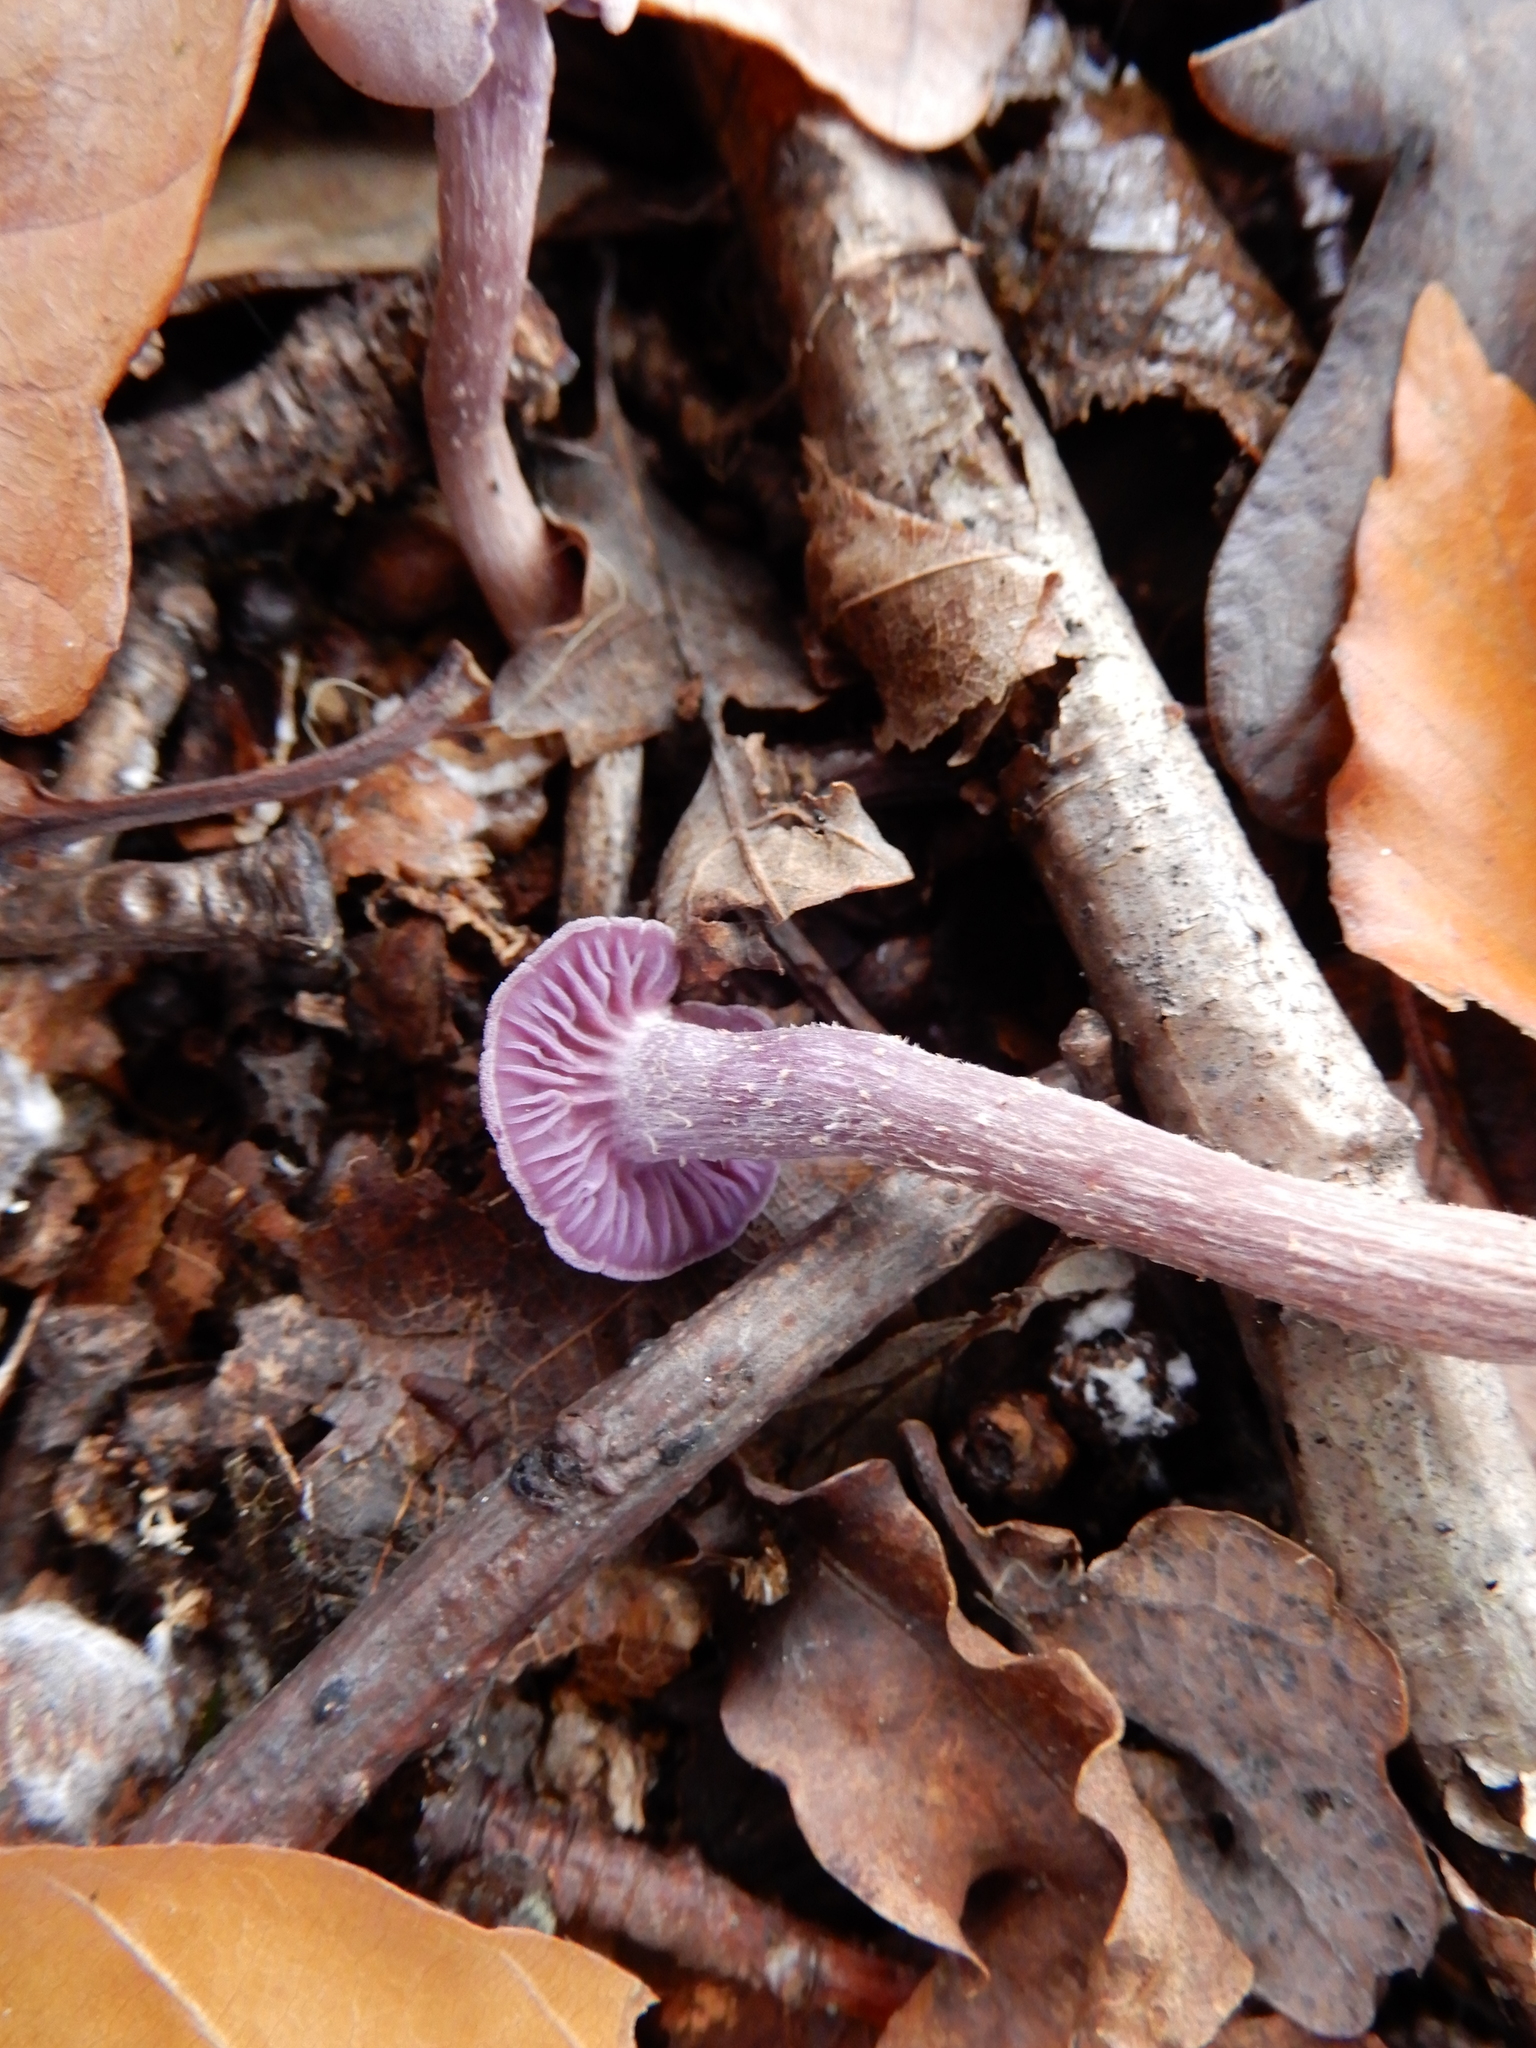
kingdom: Fungi
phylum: Basidiomycota
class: Agaricomycetes
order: Agaricales
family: Hydnangiaceae
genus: Laccaria
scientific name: Laccaria amethystina
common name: Amethyst deceiver
